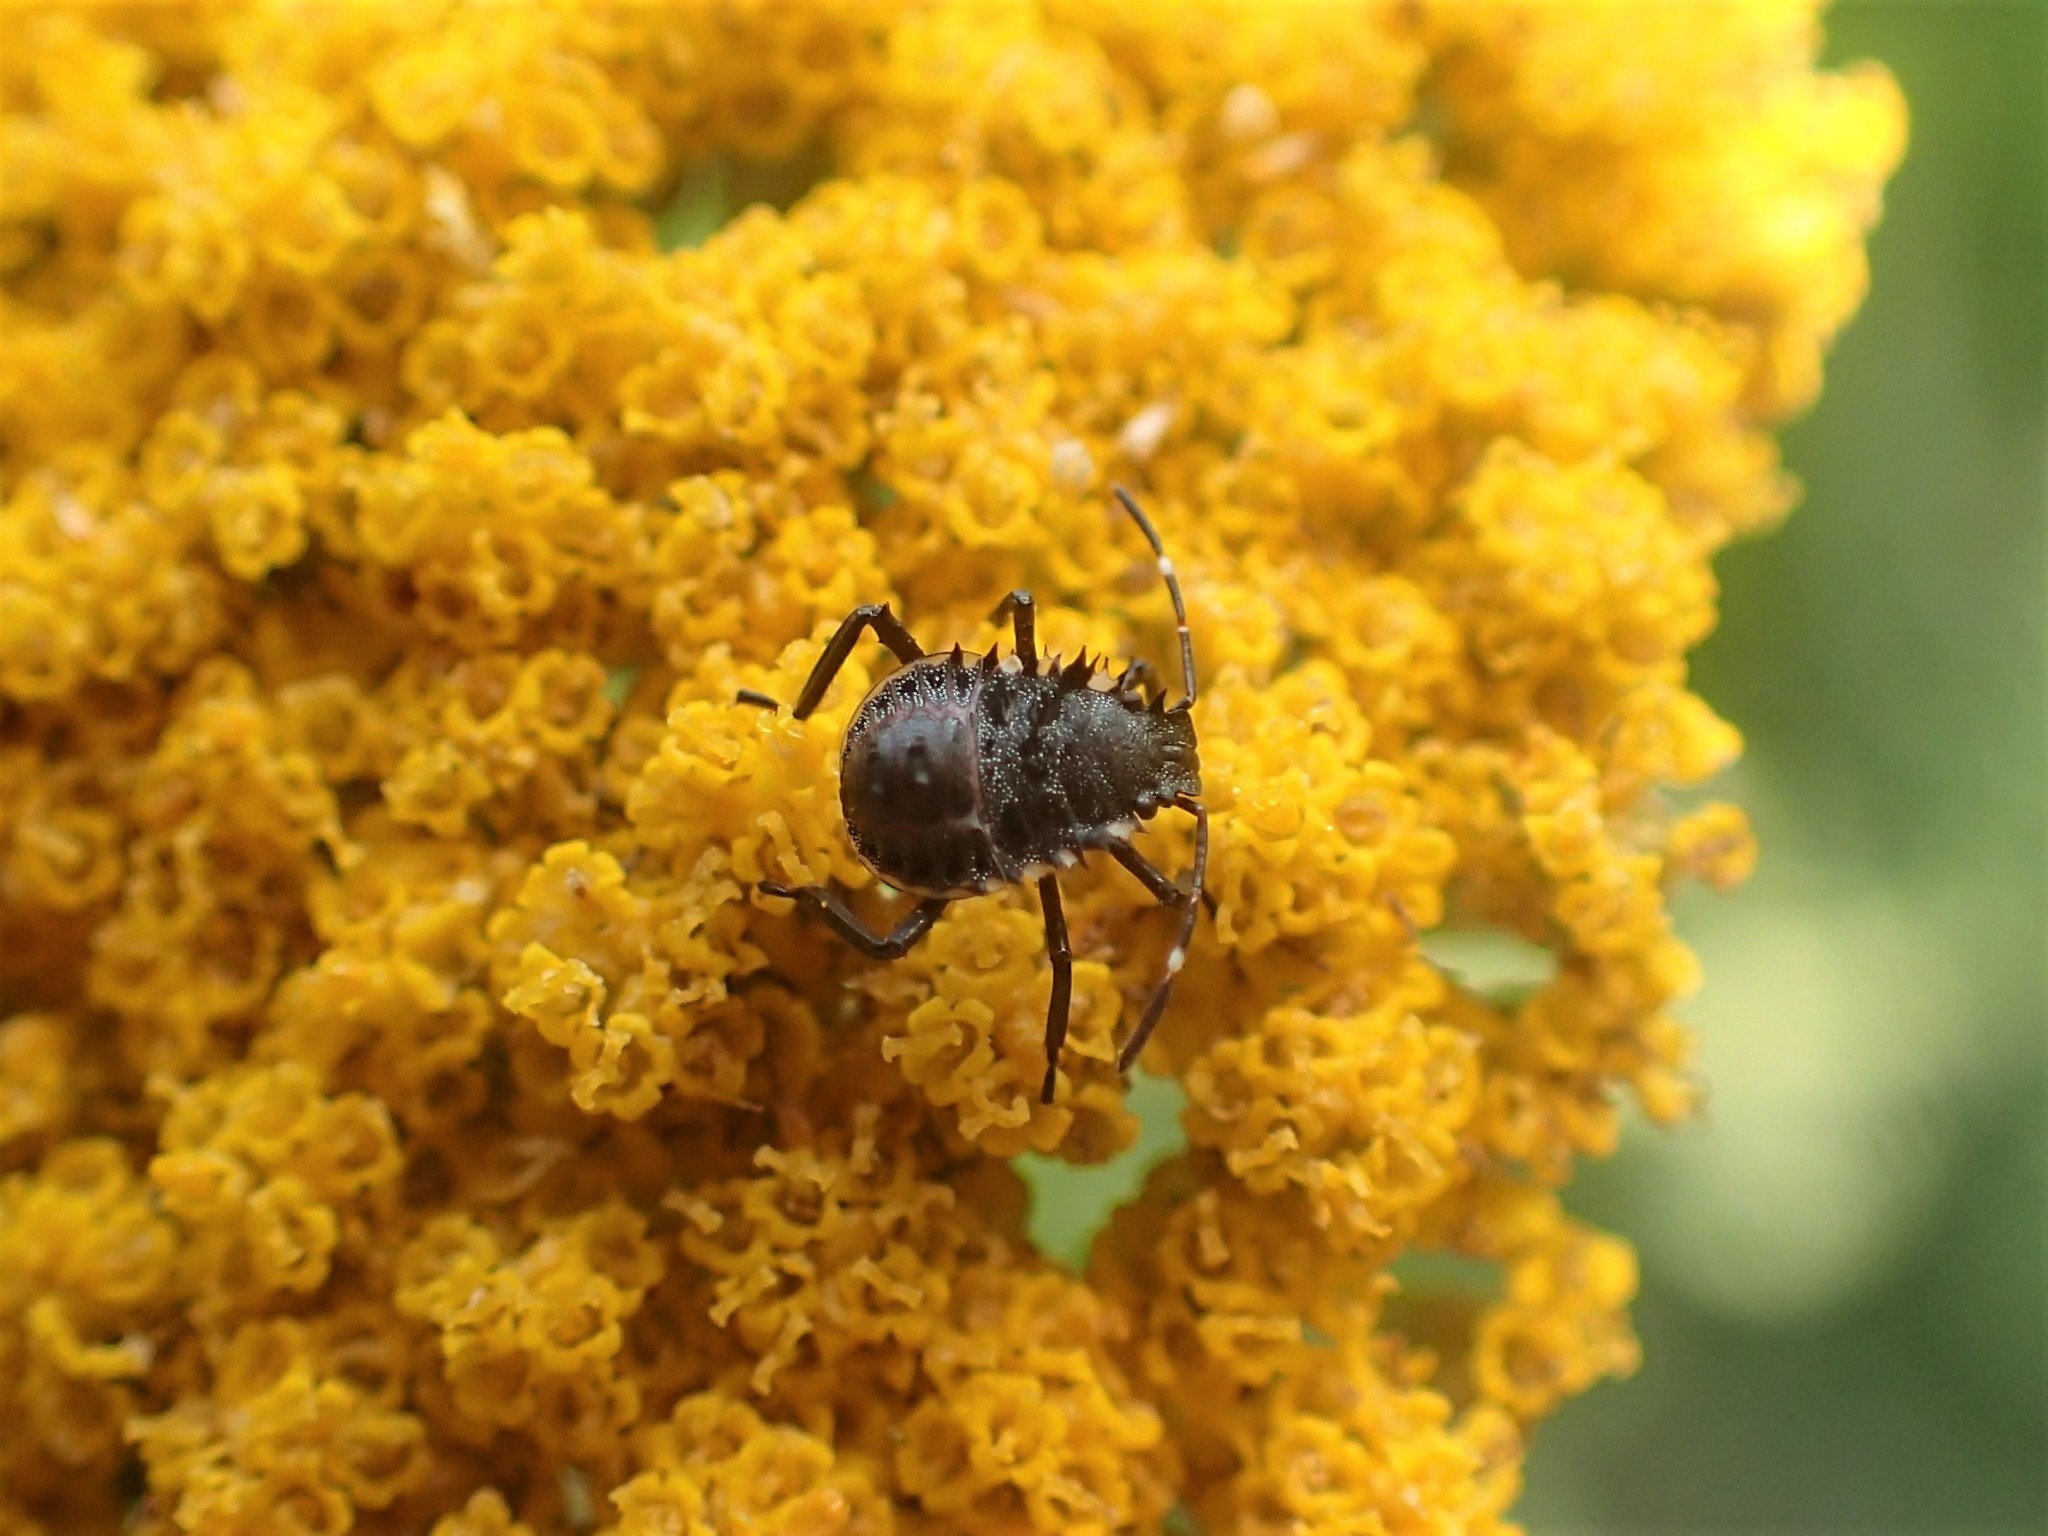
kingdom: Animalia
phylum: Arthropoda
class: Insecta
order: Hemiptera
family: Pentatomidae
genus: Halyomorpha
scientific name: Halyomorpha halys
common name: Brown marmorated stink bug
